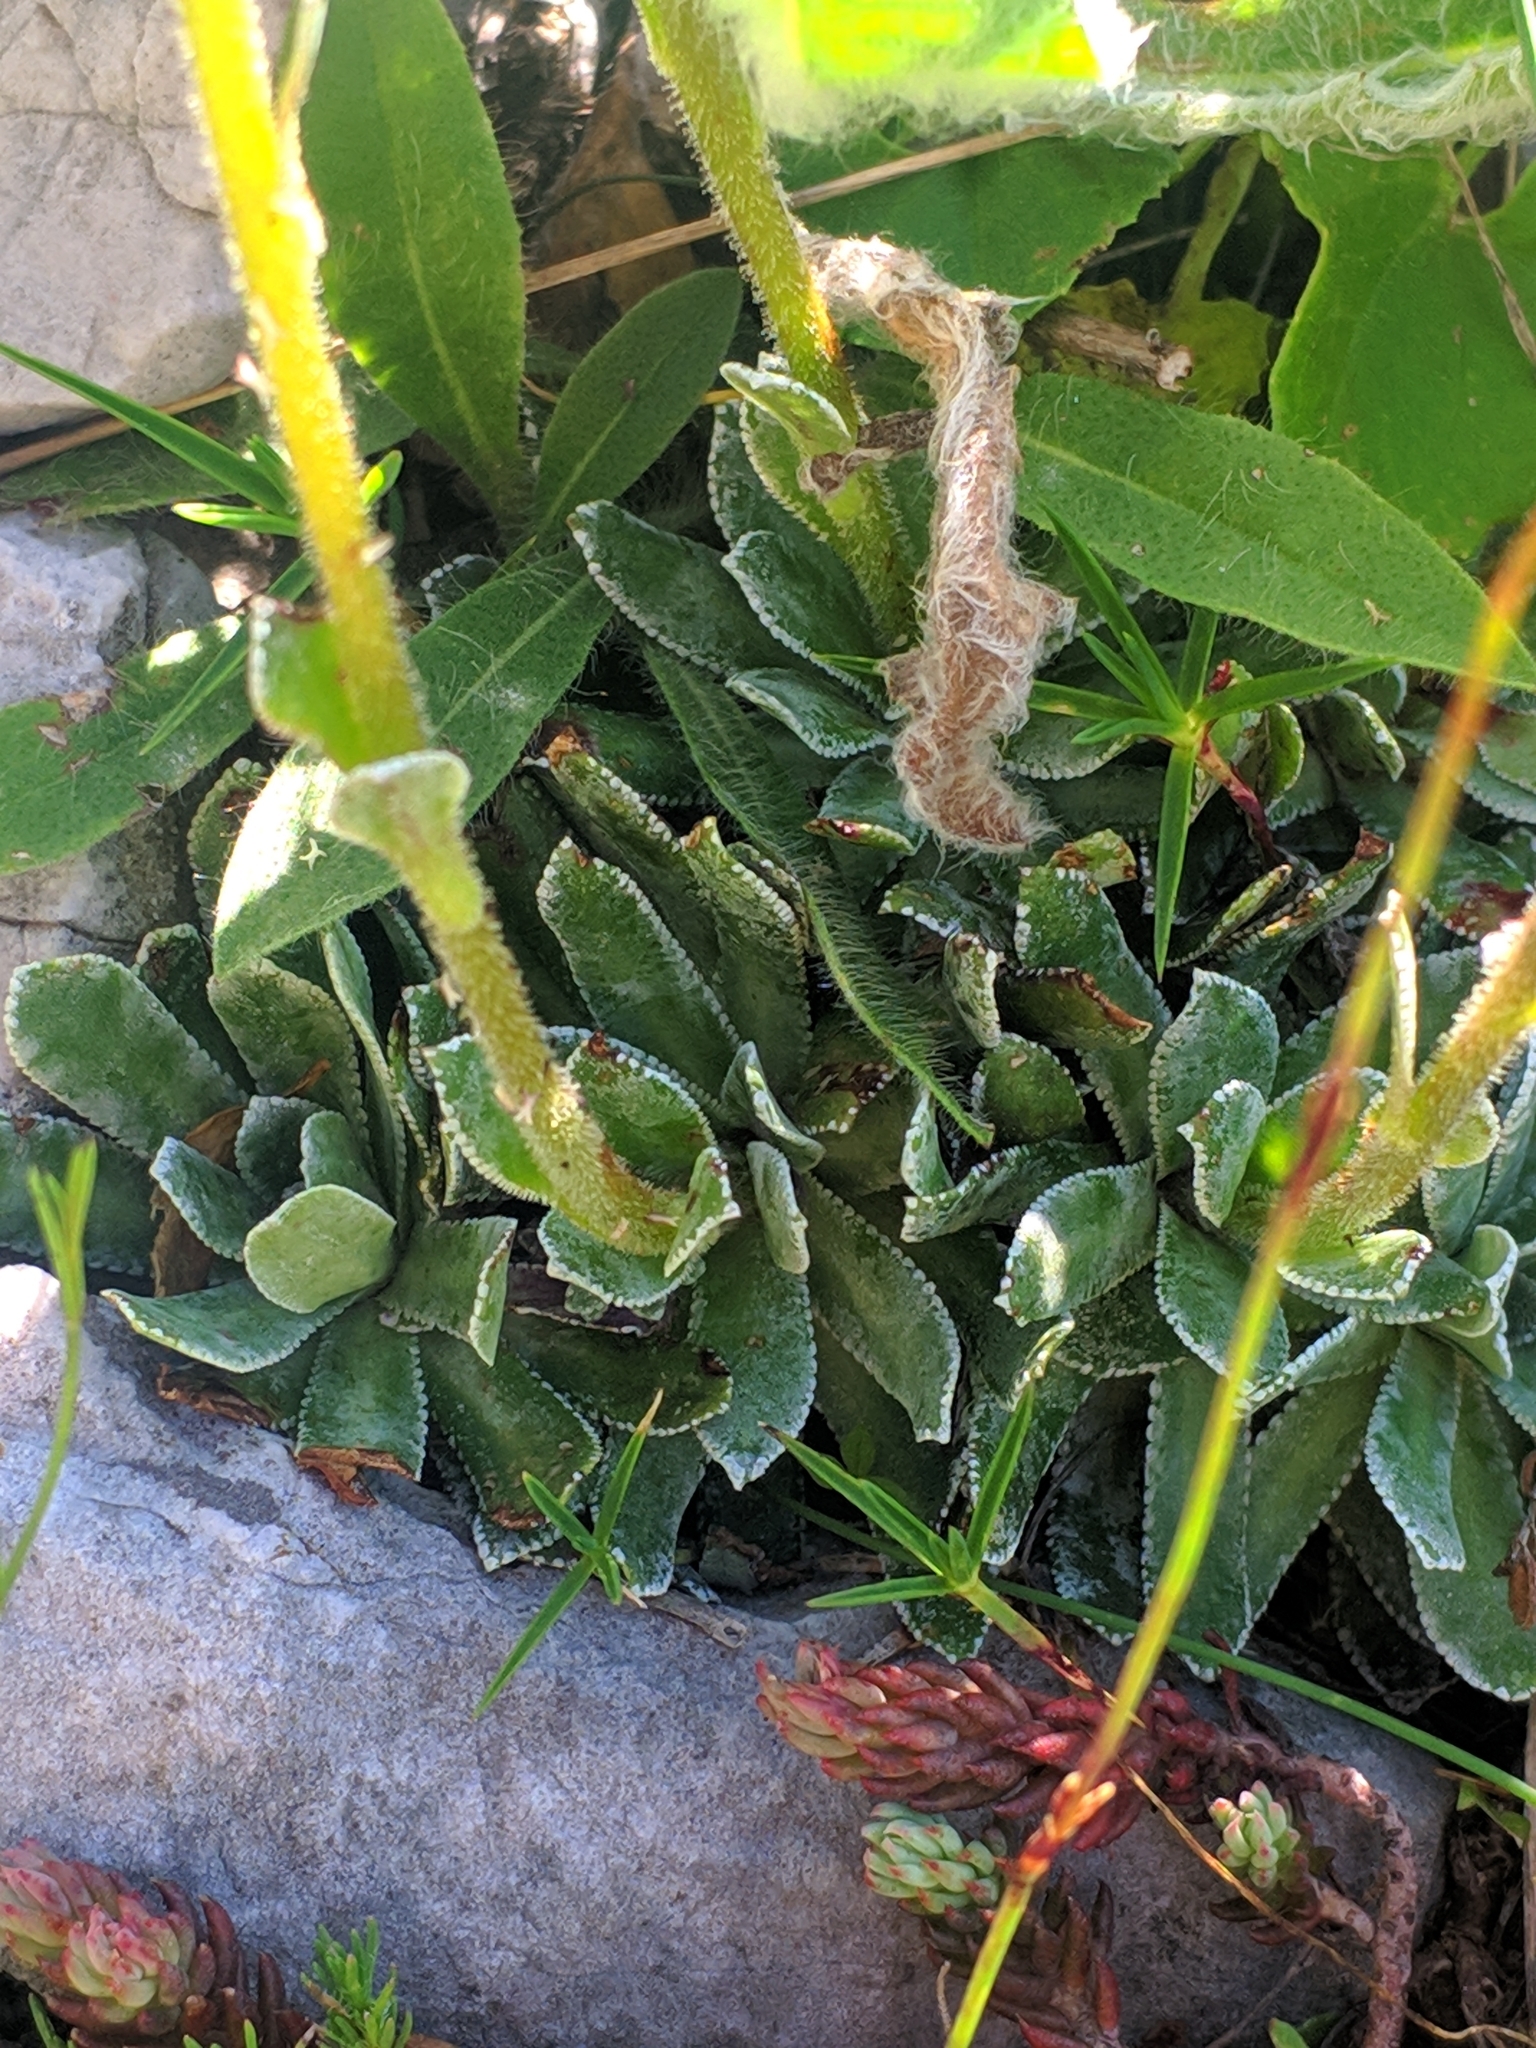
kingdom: Plantae
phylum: Tracheophyta
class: Magnoliopsida
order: Saxifragales
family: Saxifragaceae
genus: Saxifraga
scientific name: Saxifraga paniculata
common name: Livelong saxifrage
